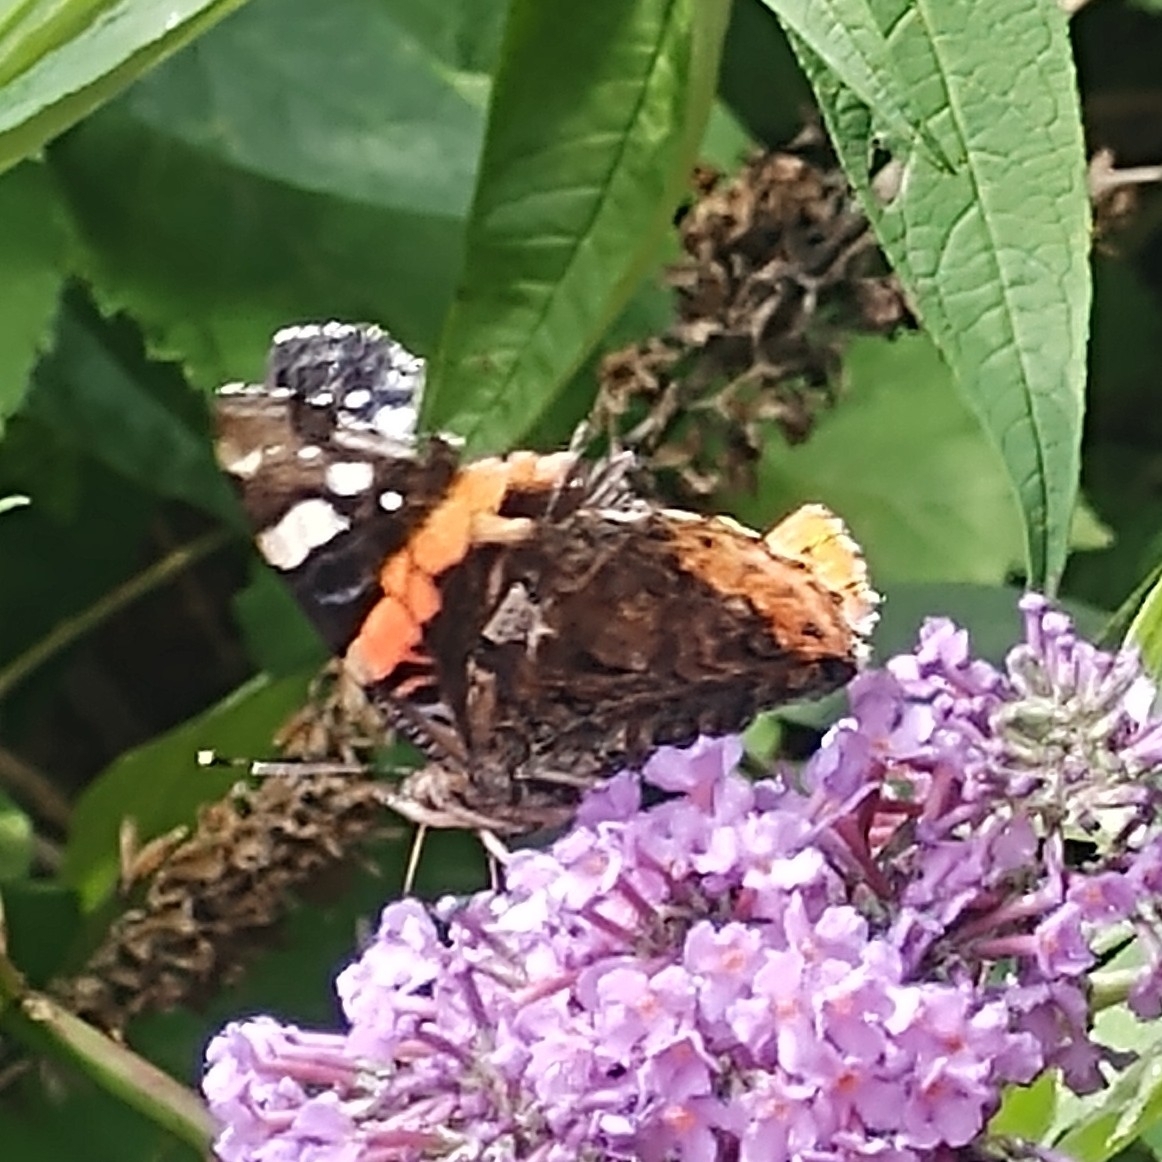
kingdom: Animalia
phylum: Arthropoda
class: Insecta
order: Lepidoptera
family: Nymphalidae
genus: Vanessa
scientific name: Vanessa atalanta
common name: Red admiral
